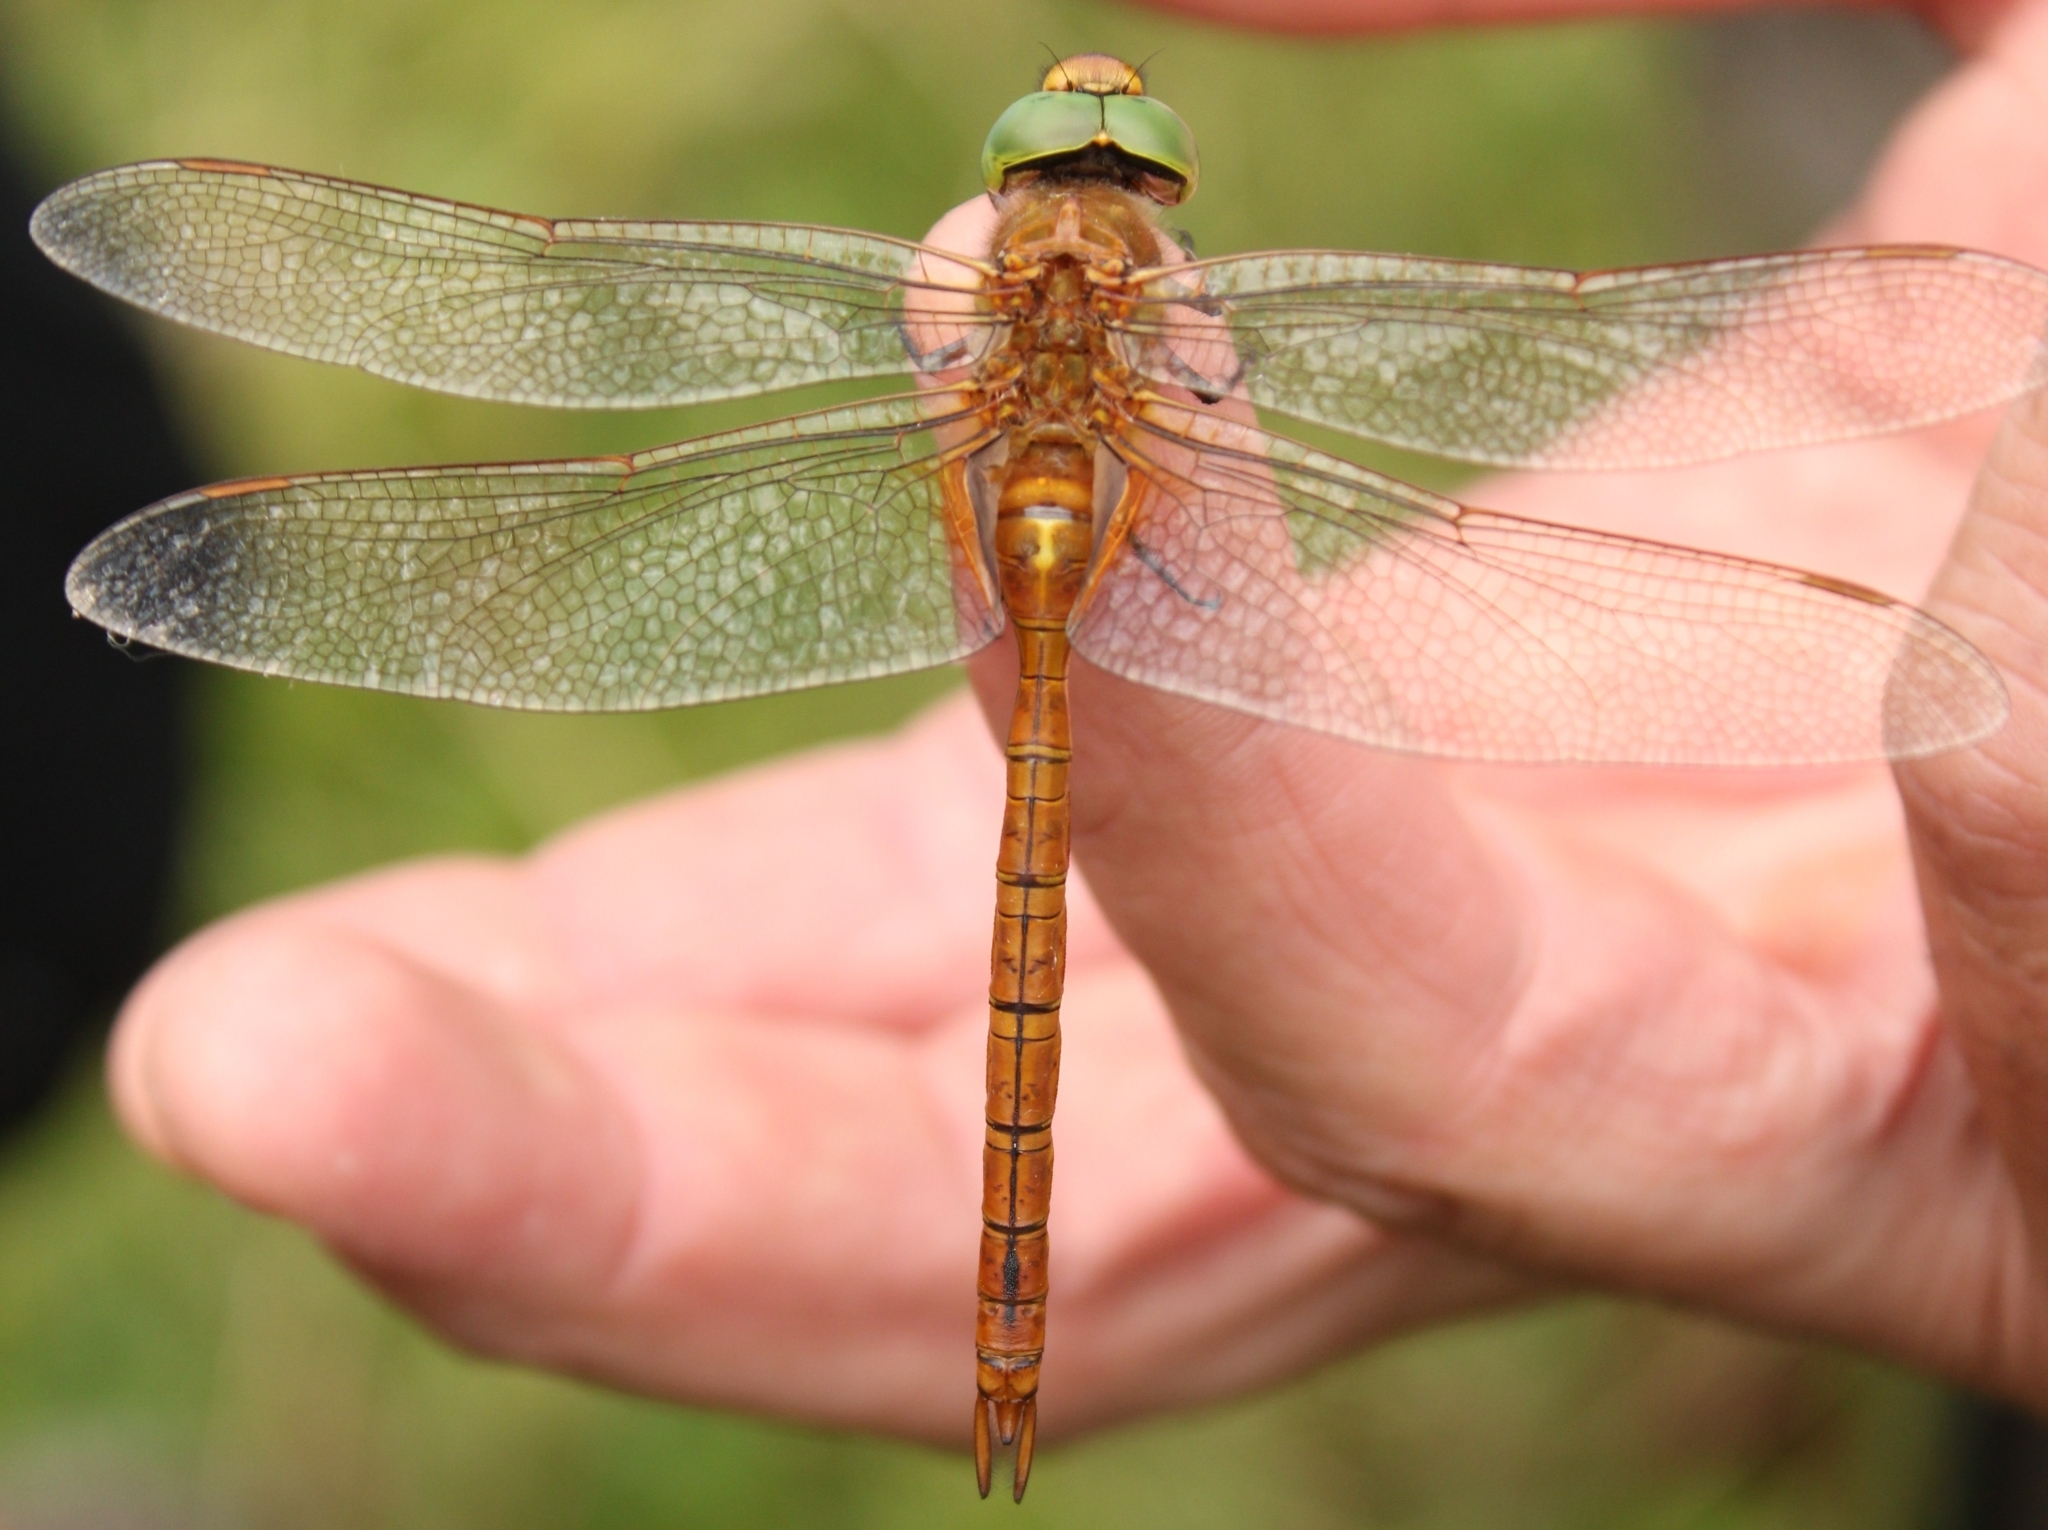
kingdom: Animalia
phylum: Arthropoda
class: Insecta
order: Odonata
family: Aeshnidae
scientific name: Aeshnidae
